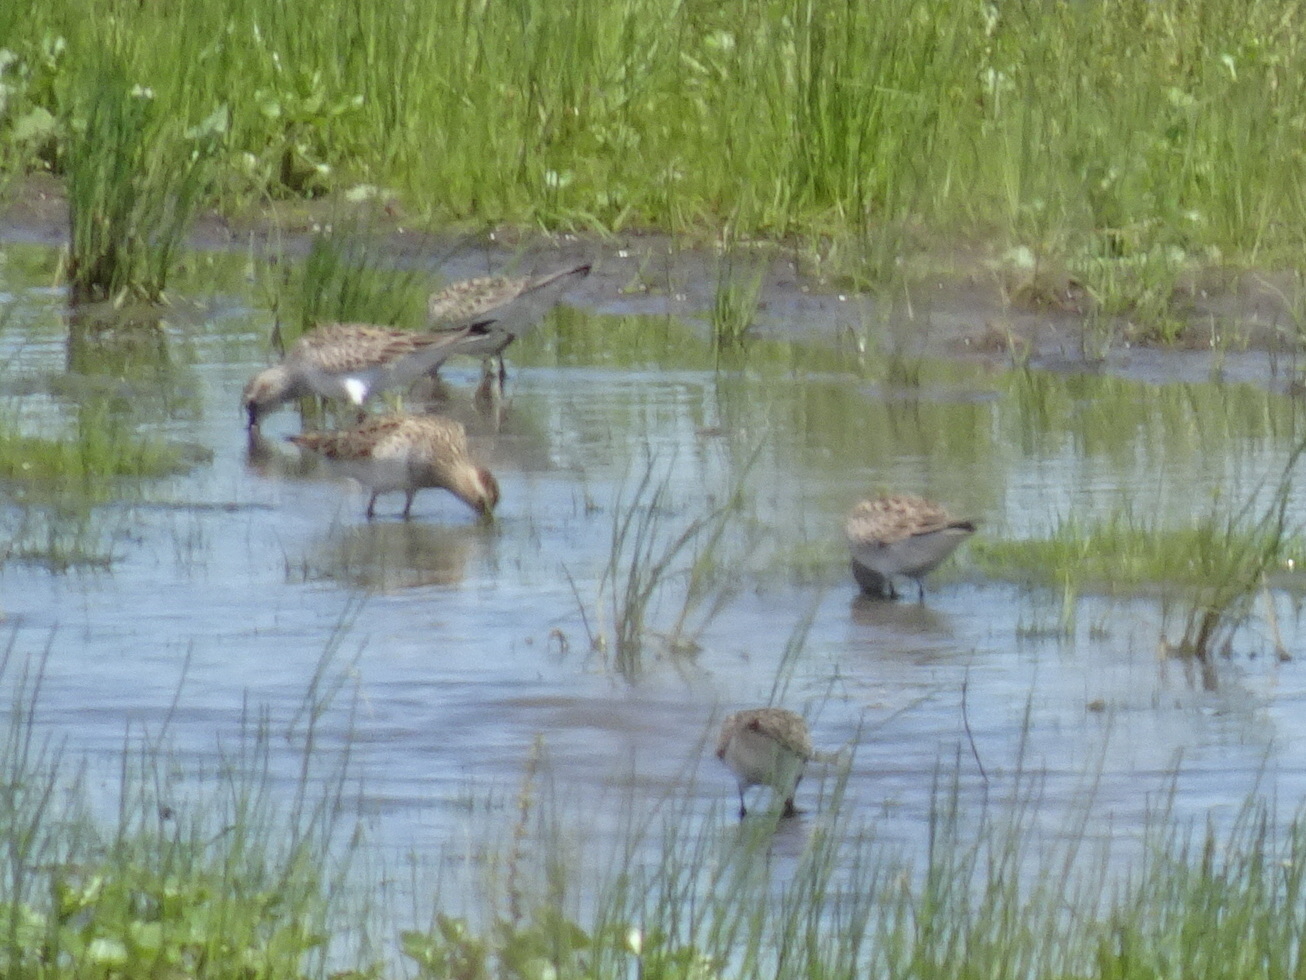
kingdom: Animalia
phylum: Chordata
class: Aves
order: Charadriiformes
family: Scolopacidae
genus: Calidris
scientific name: Calidris fuscicollis
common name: White-rumped sandpiper
